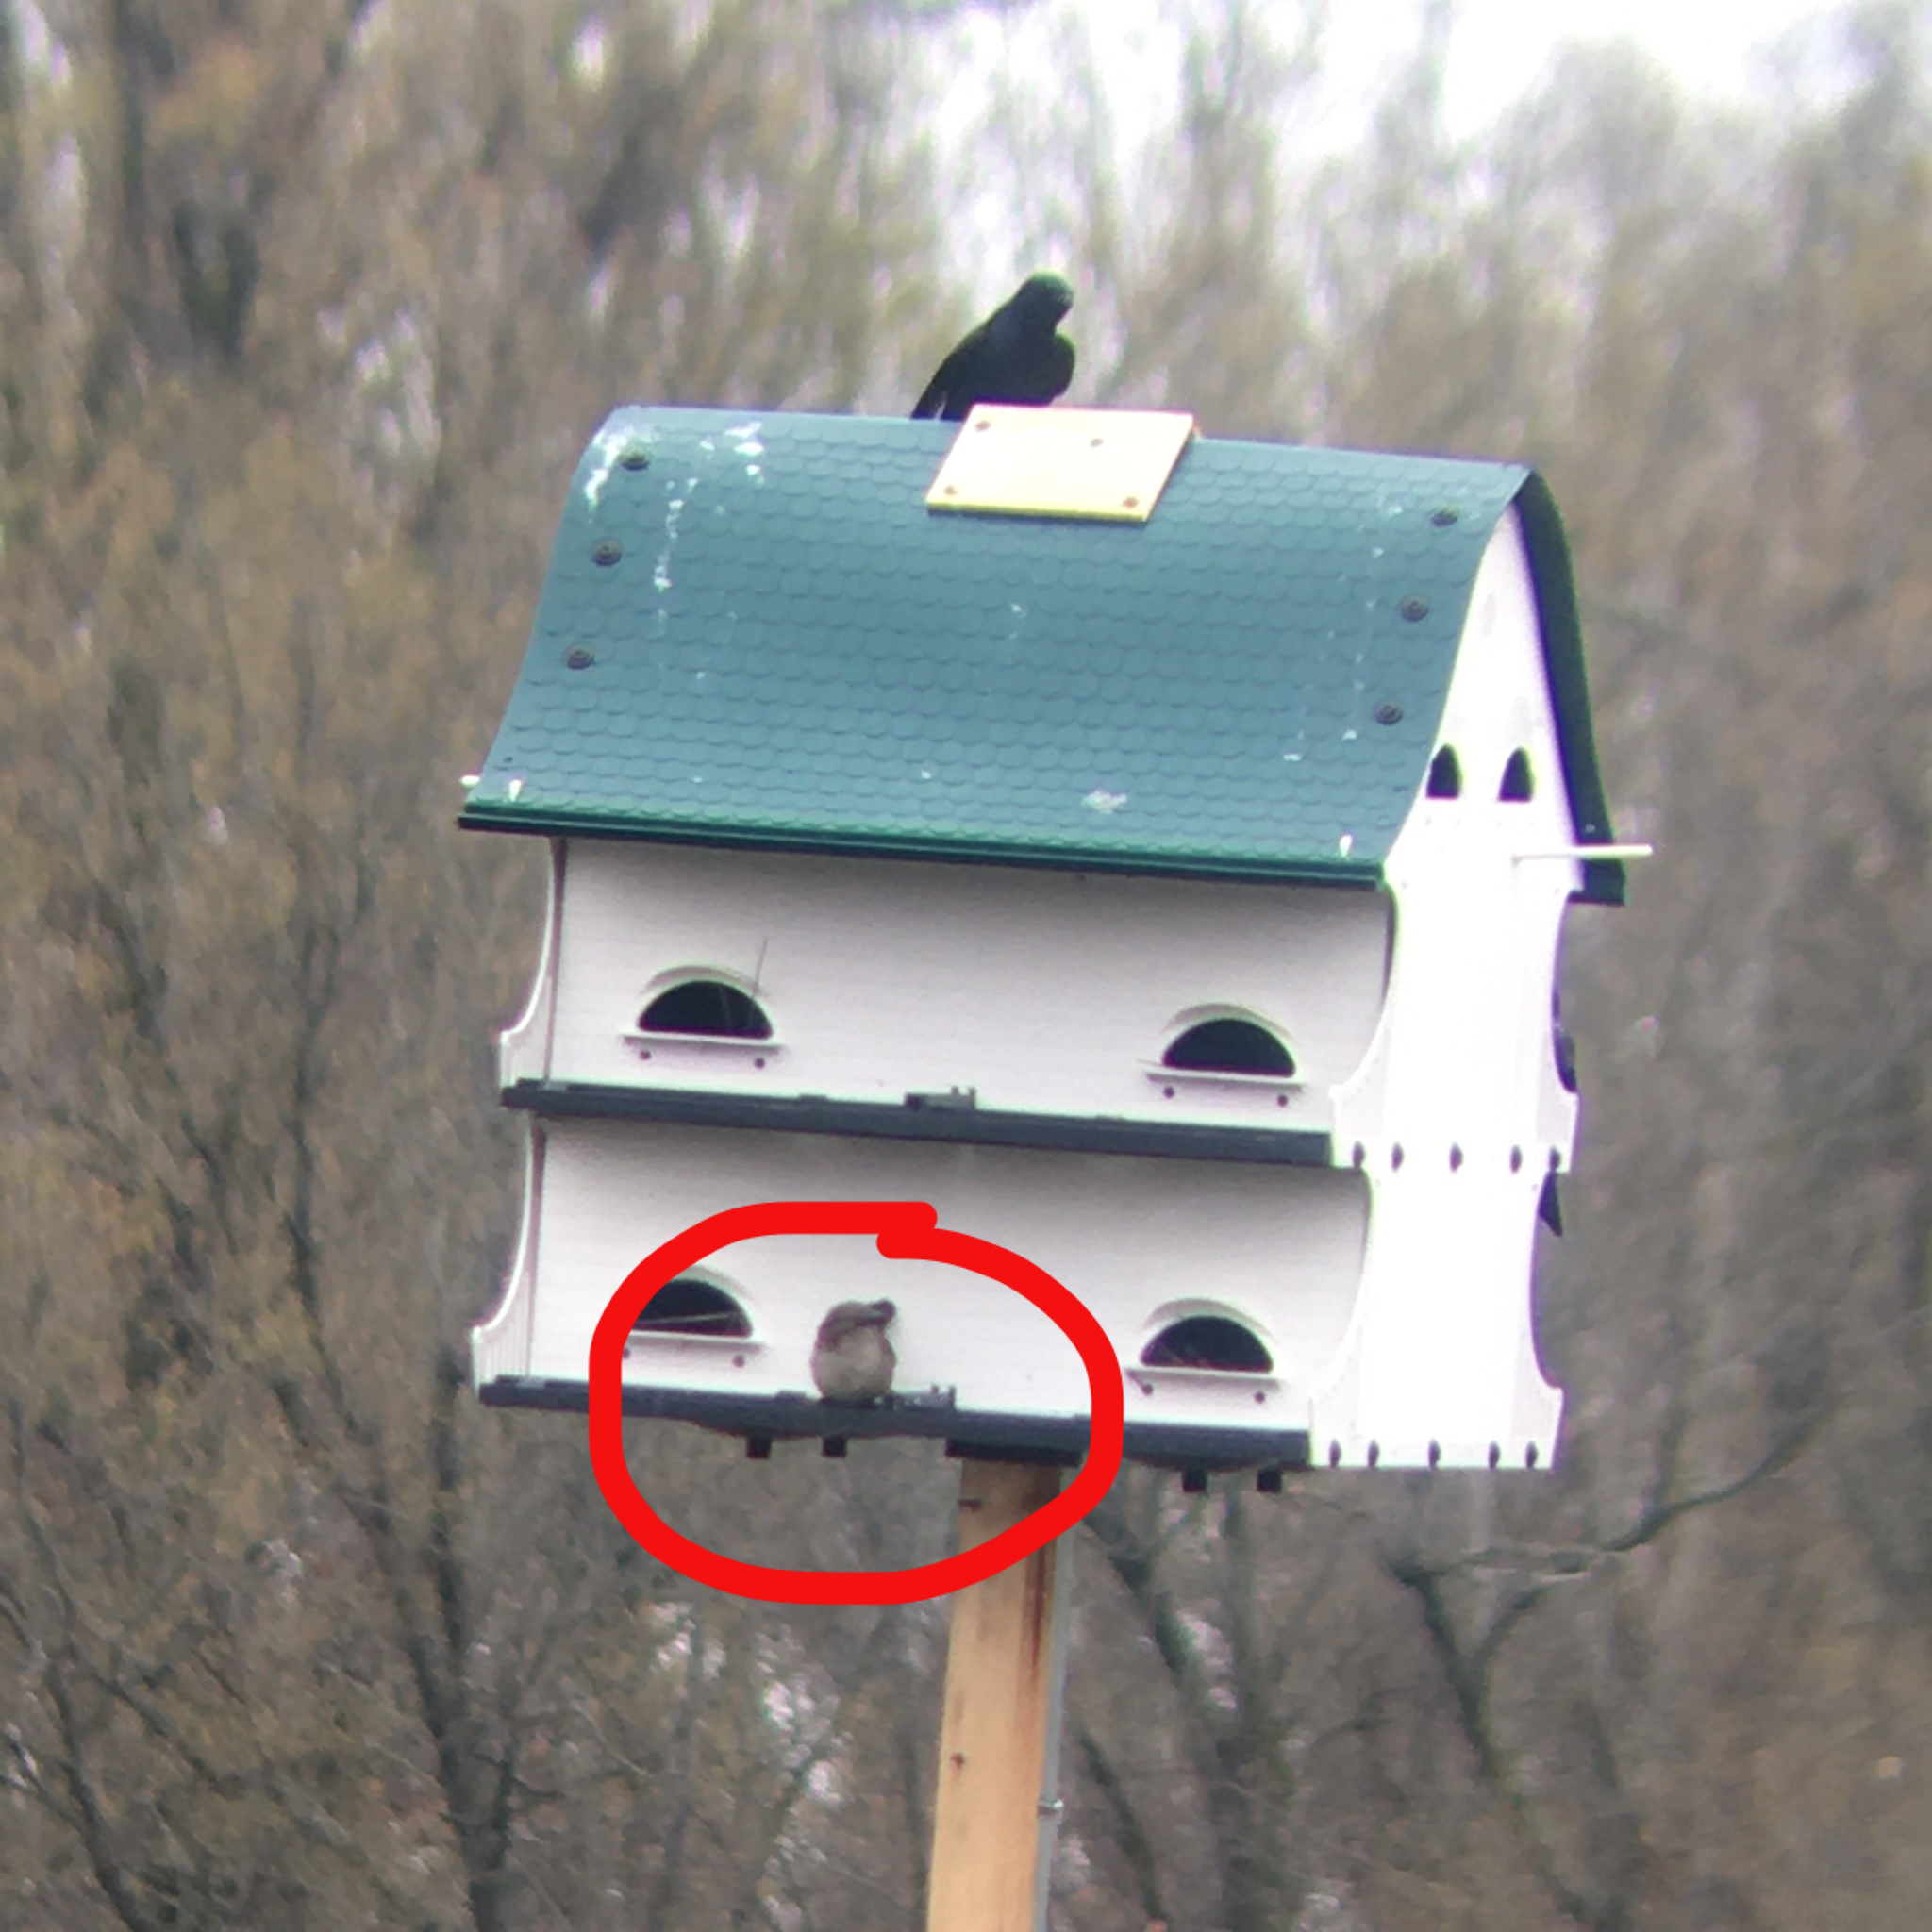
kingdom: Animalia
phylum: Chordata
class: Aves
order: Passeriformes
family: Passeridae
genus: Passer
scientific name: Passer domesticus
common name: House sparrow
